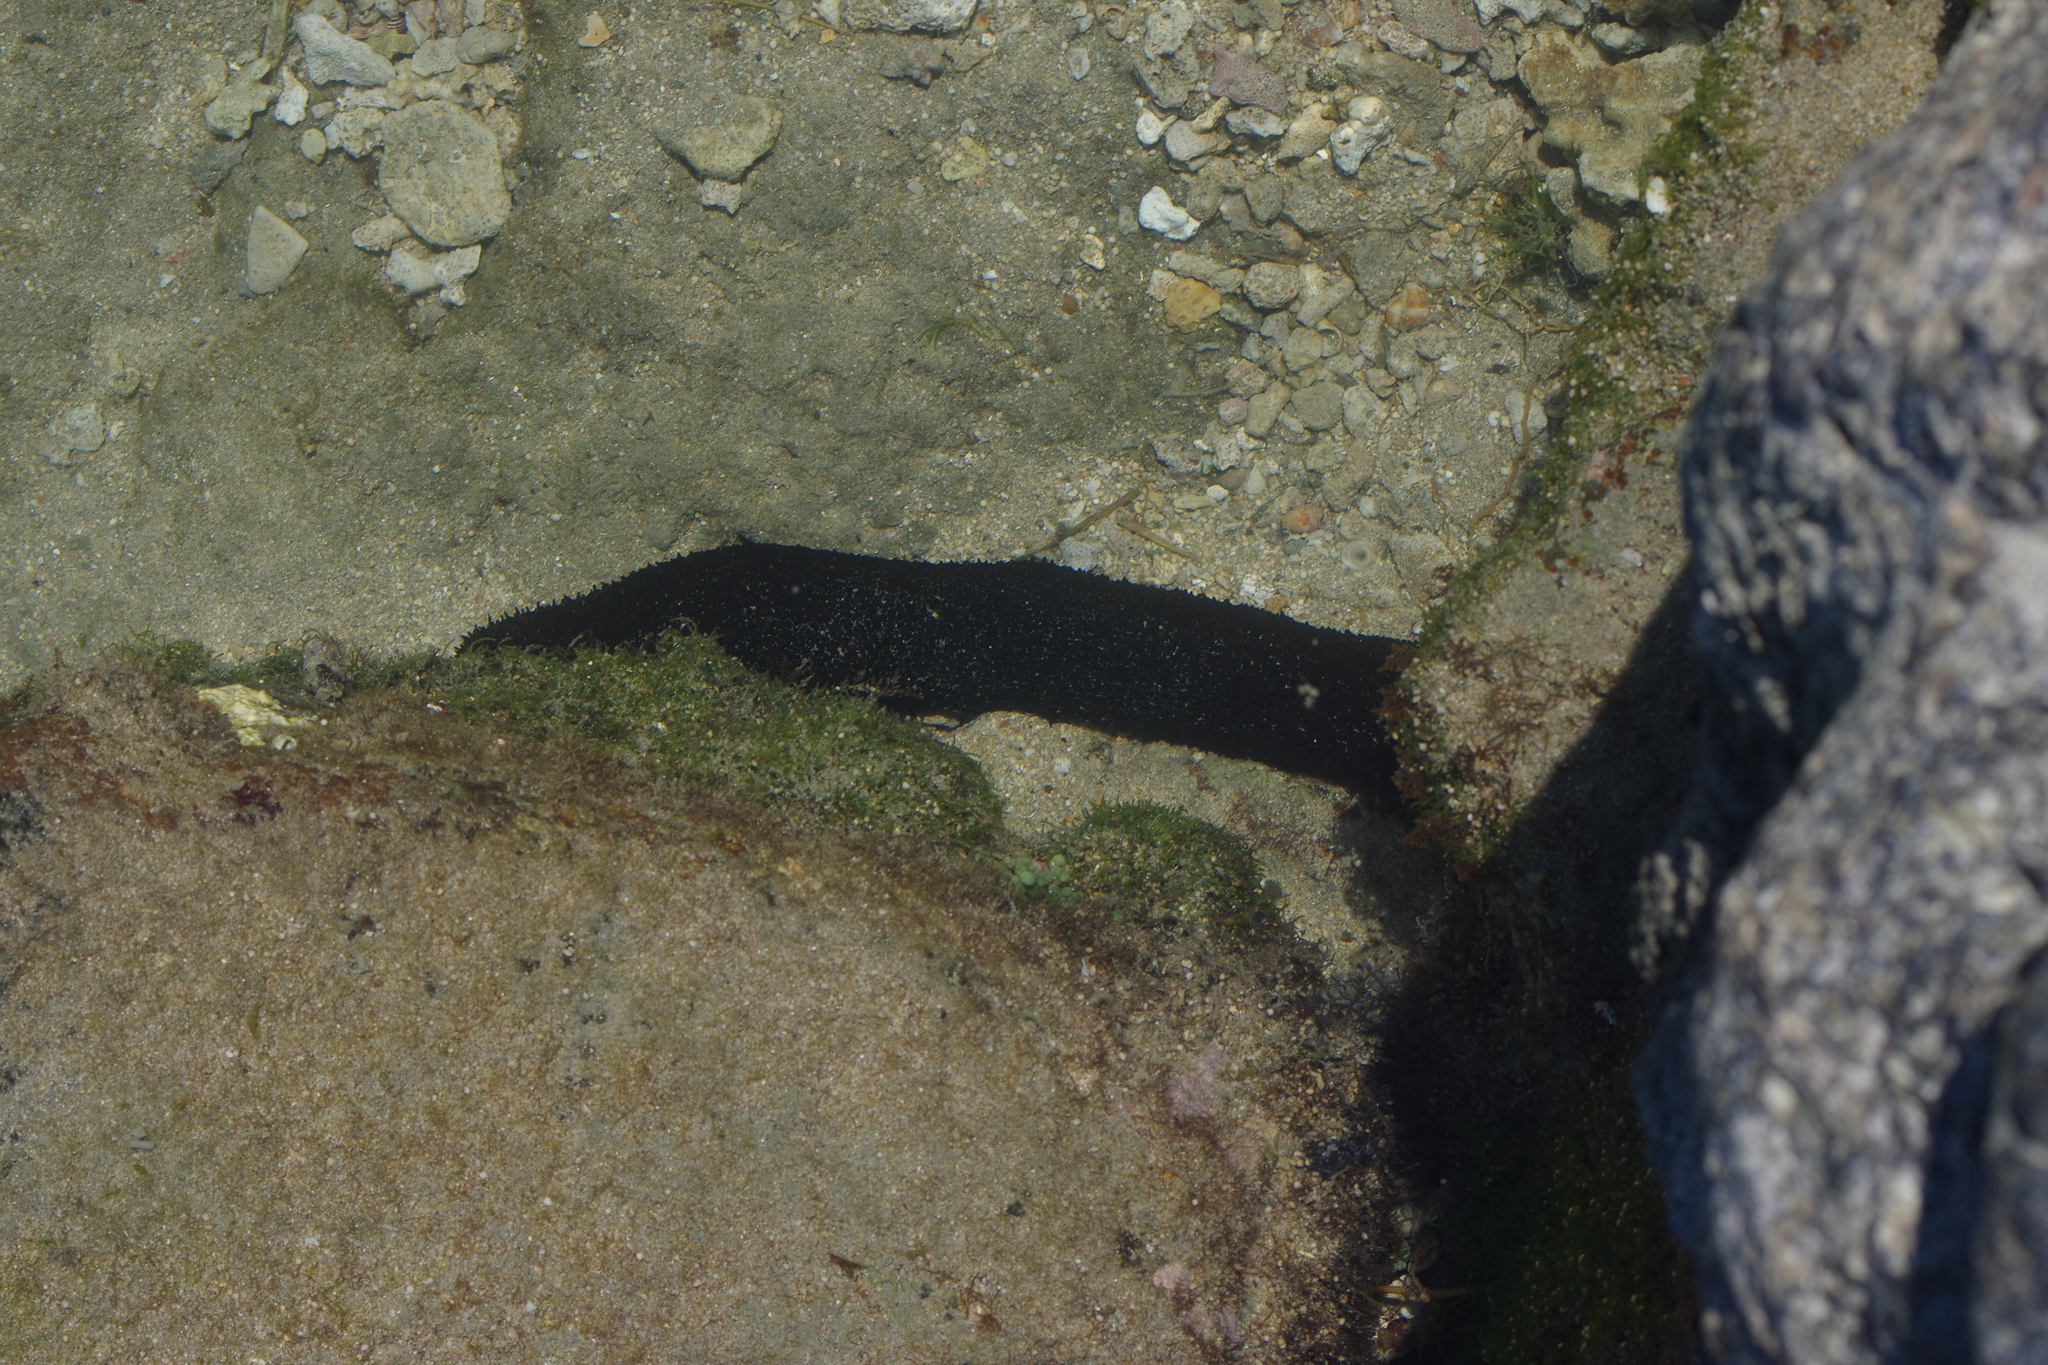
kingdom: Animalia
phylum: Echinodermata
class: Holothuroidea
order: Holothuriida
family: Holothuriidae
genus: Holothuria
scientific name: Holothuria leucospilota
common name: White thread fish
